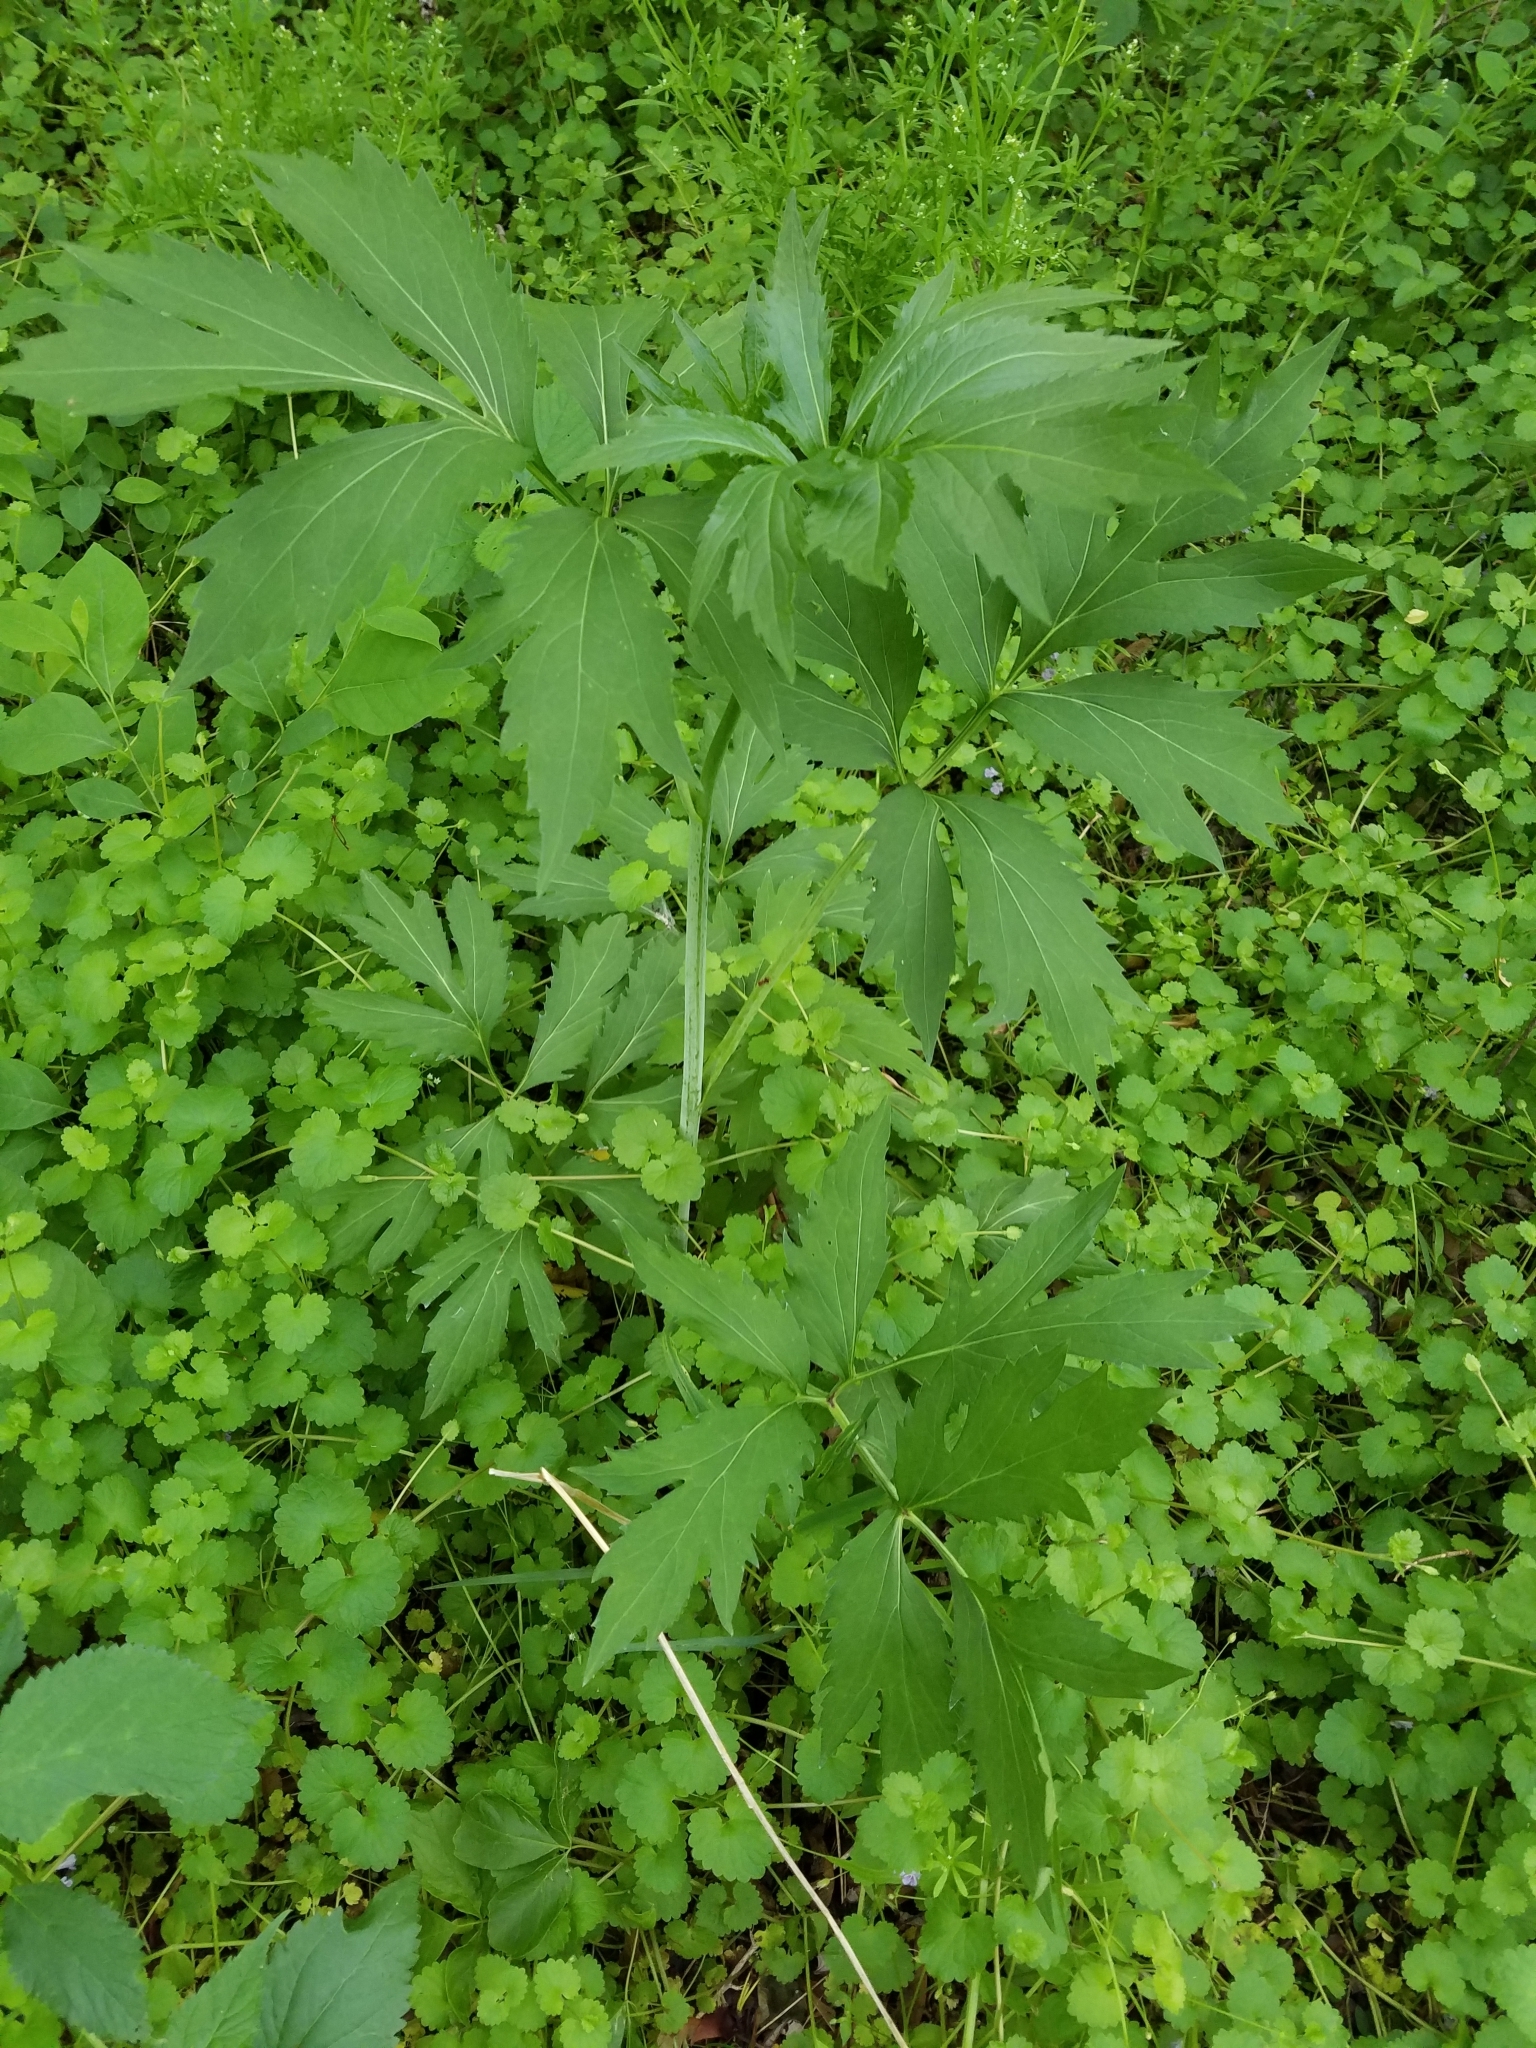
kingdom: Plantae
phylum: Tracheophyta
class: Magnoliopsida
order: Asterales
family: Asteraceae
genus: Rudbeckia
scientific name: Rudbeckia laciniata
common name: Coneflower
